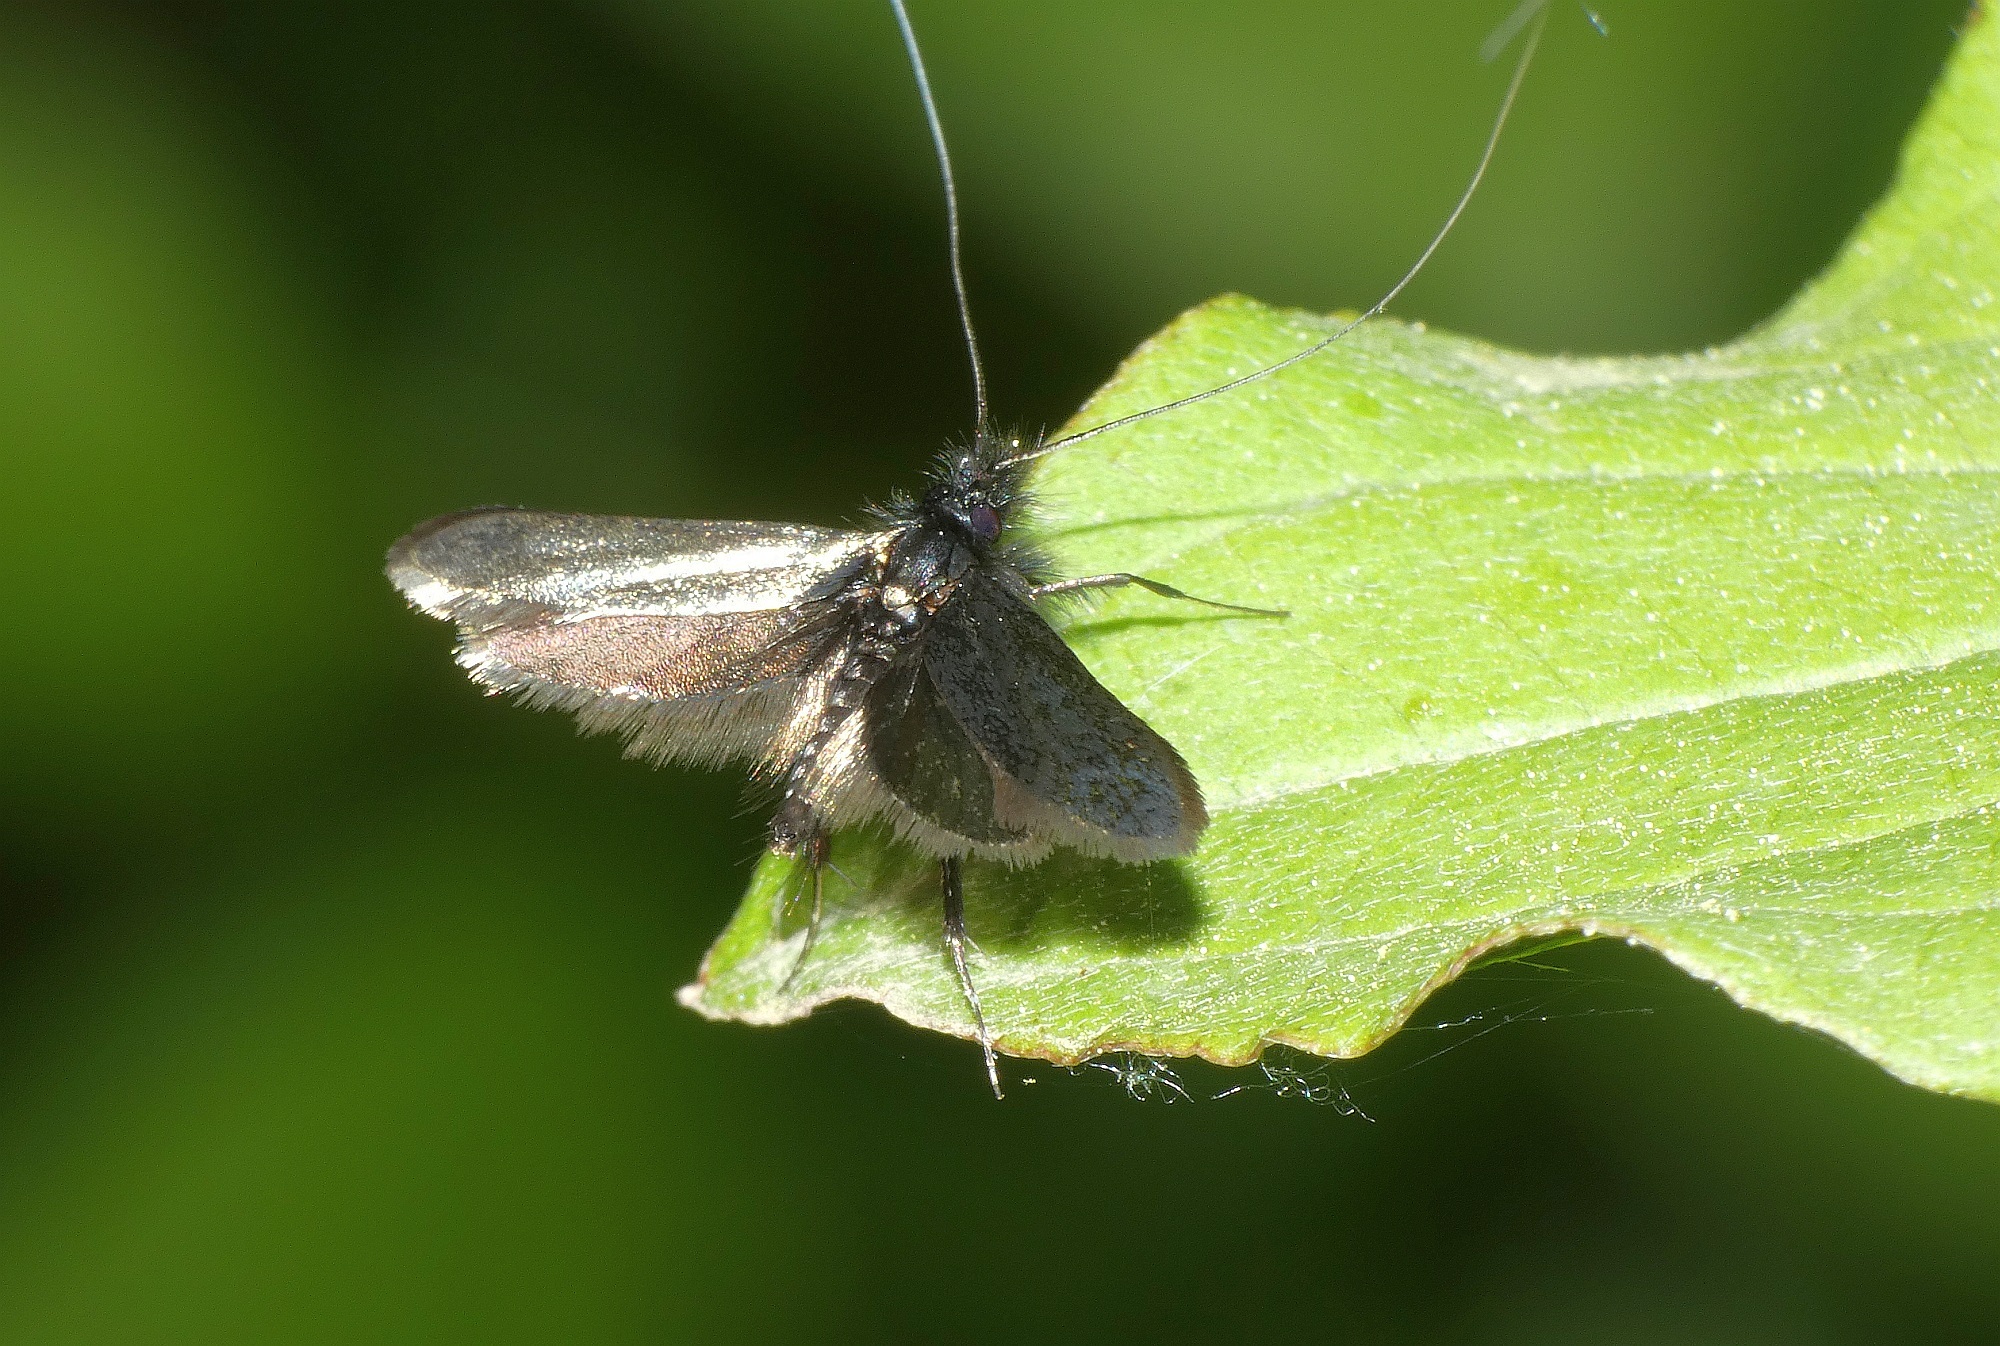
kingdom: Animalia
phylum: Arthropoda
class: Insecta
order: Lepidoptera
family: Adelidae
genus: Adela
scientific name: Adela viridella
